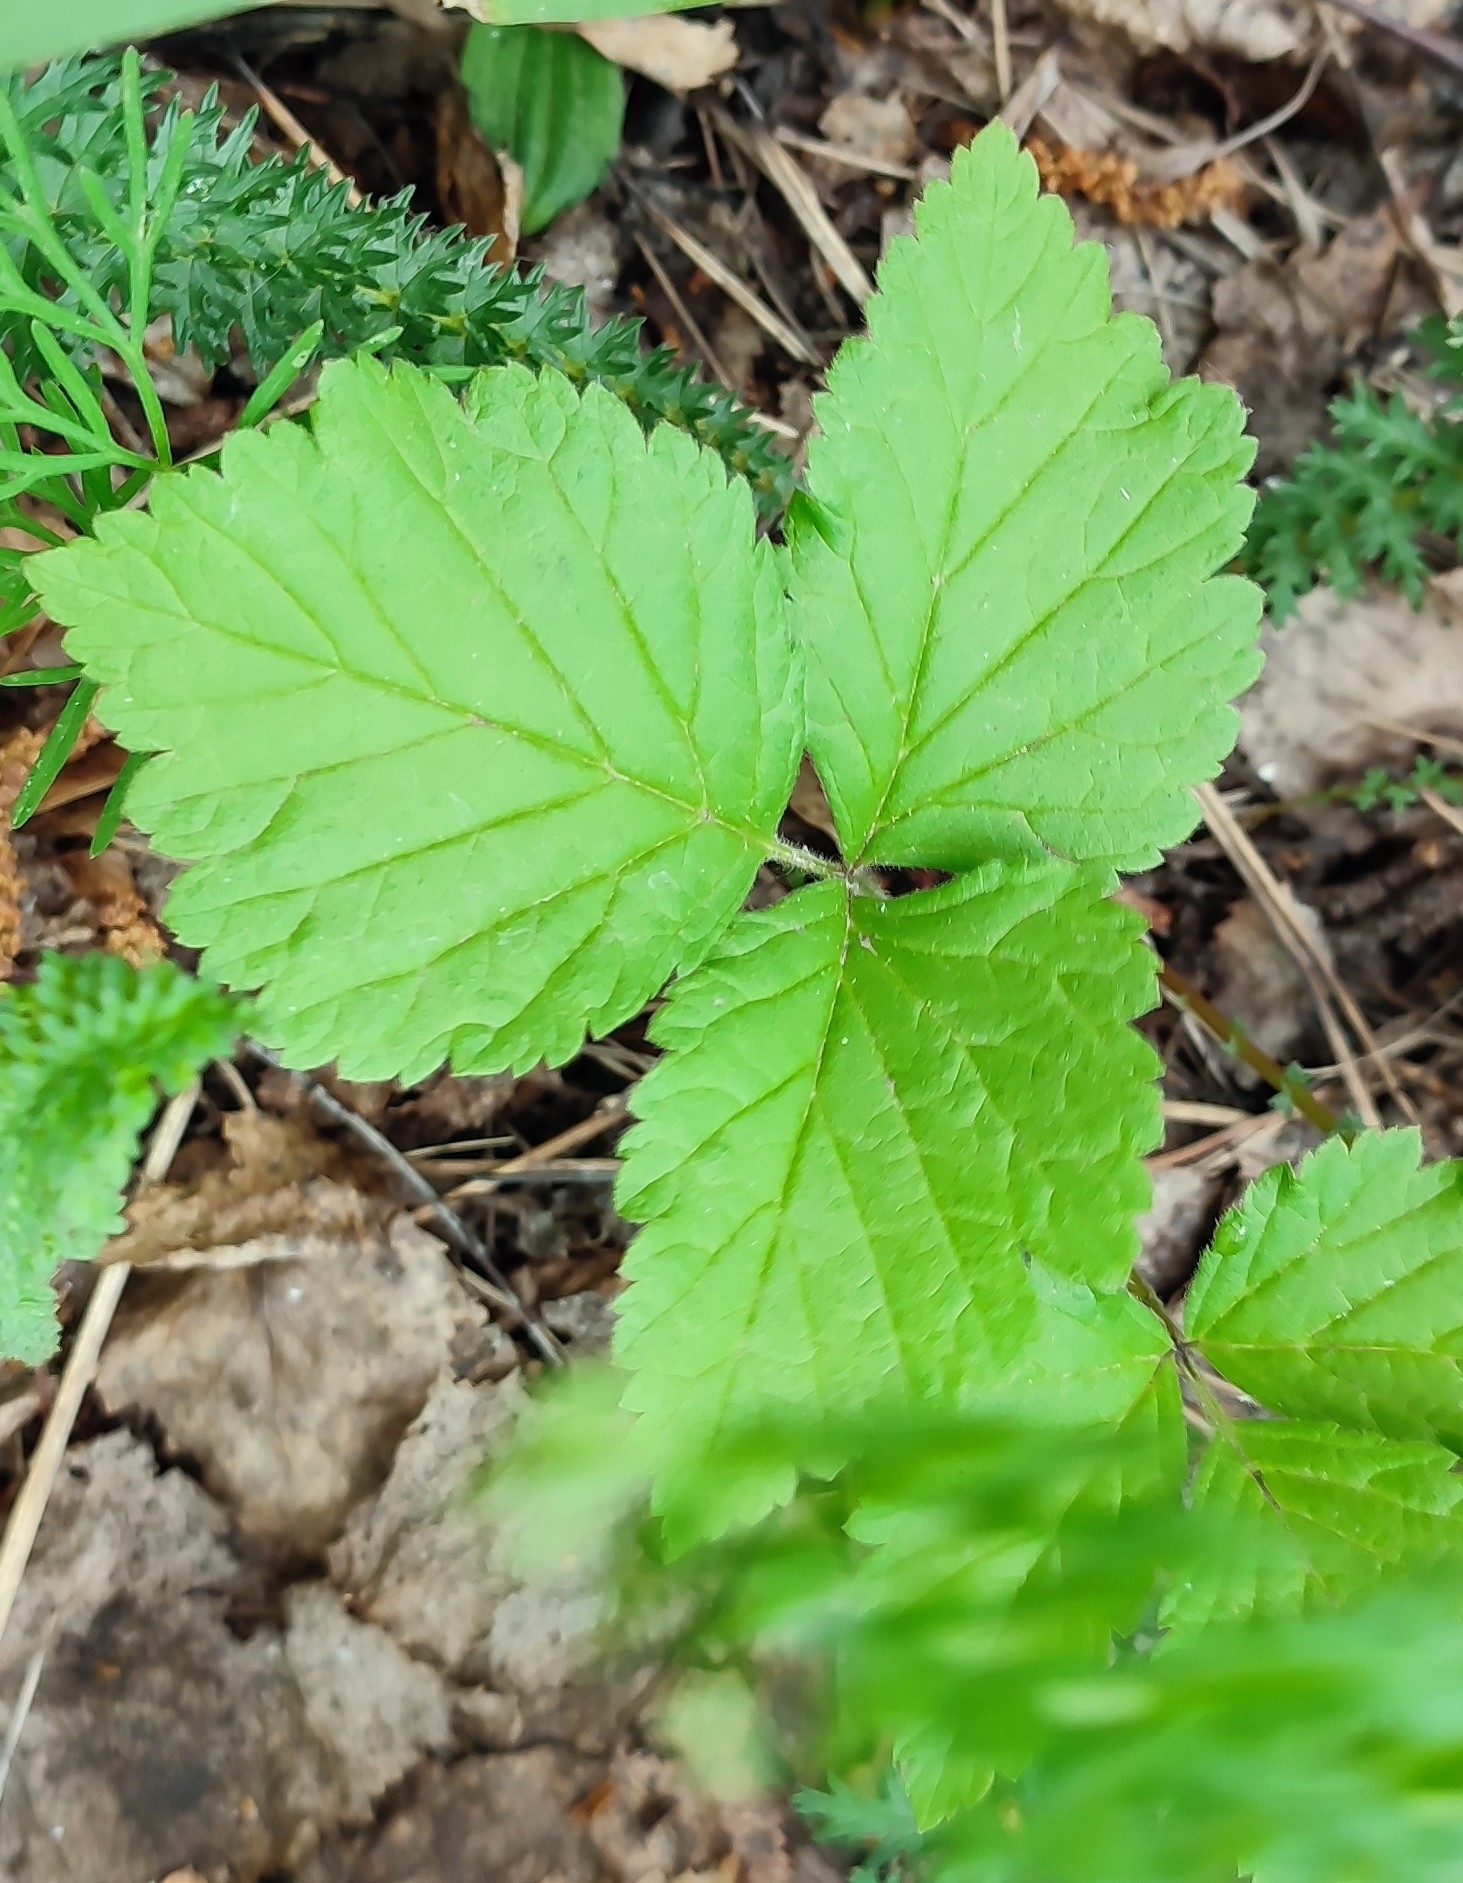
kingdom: Plantae
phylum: Tracheophyta
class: Magnoliopsida
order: Rosales
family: Rosaceae
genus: Rubus
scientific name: Rubus saxatilis
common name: Stone bramble
